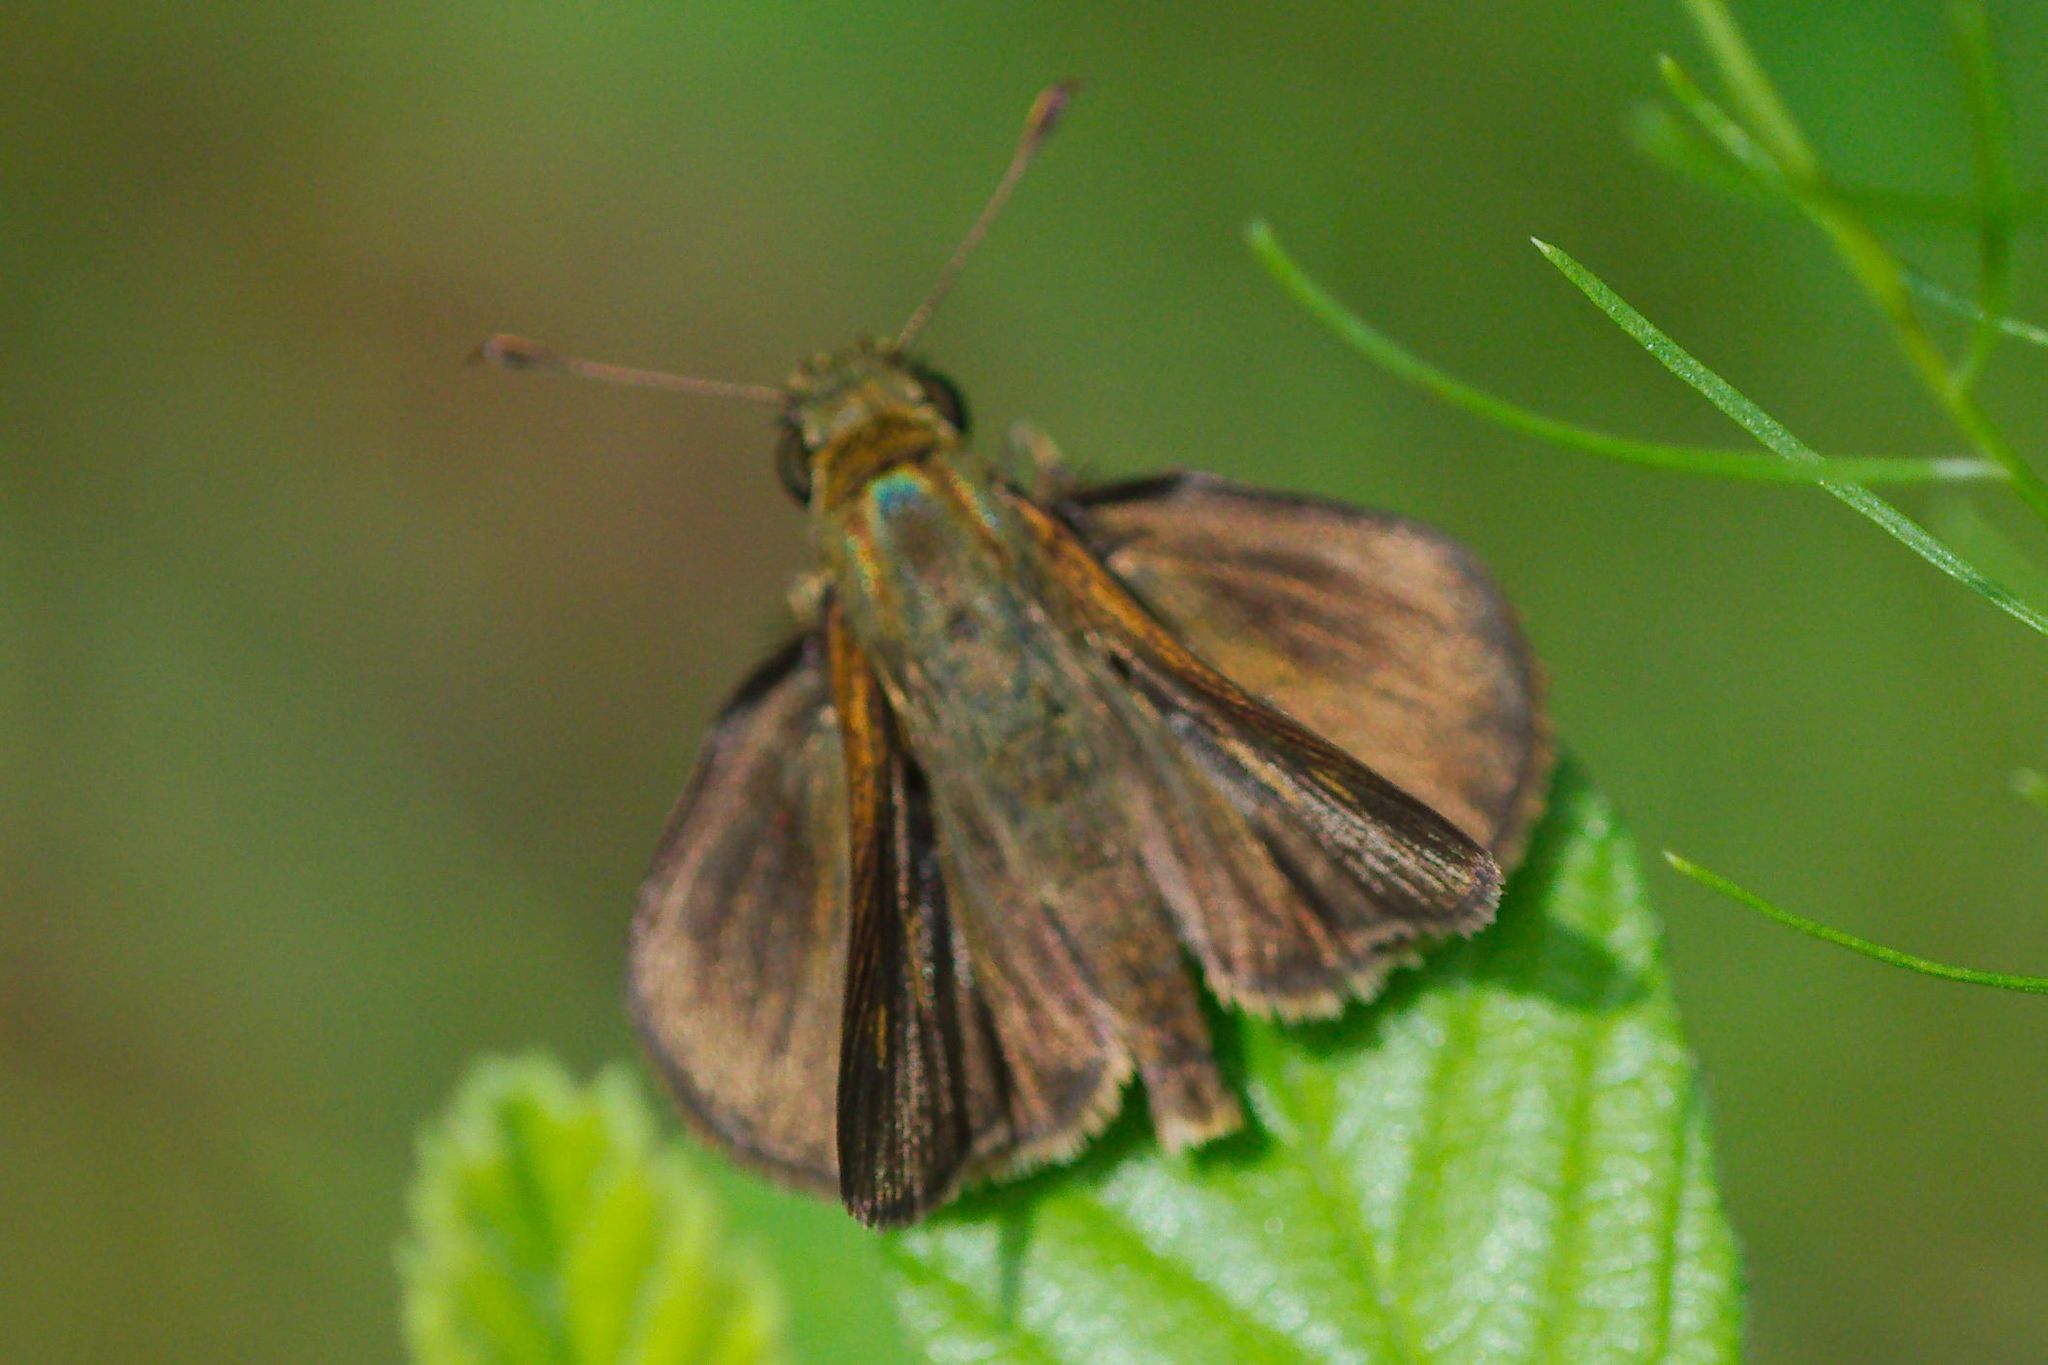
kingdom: Animalia
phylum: Arthropoda
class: Insecta
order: Lepidoptera
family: Hesperiidae
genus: Polites
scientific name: Polites egeremet
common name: Northern broken-dash
